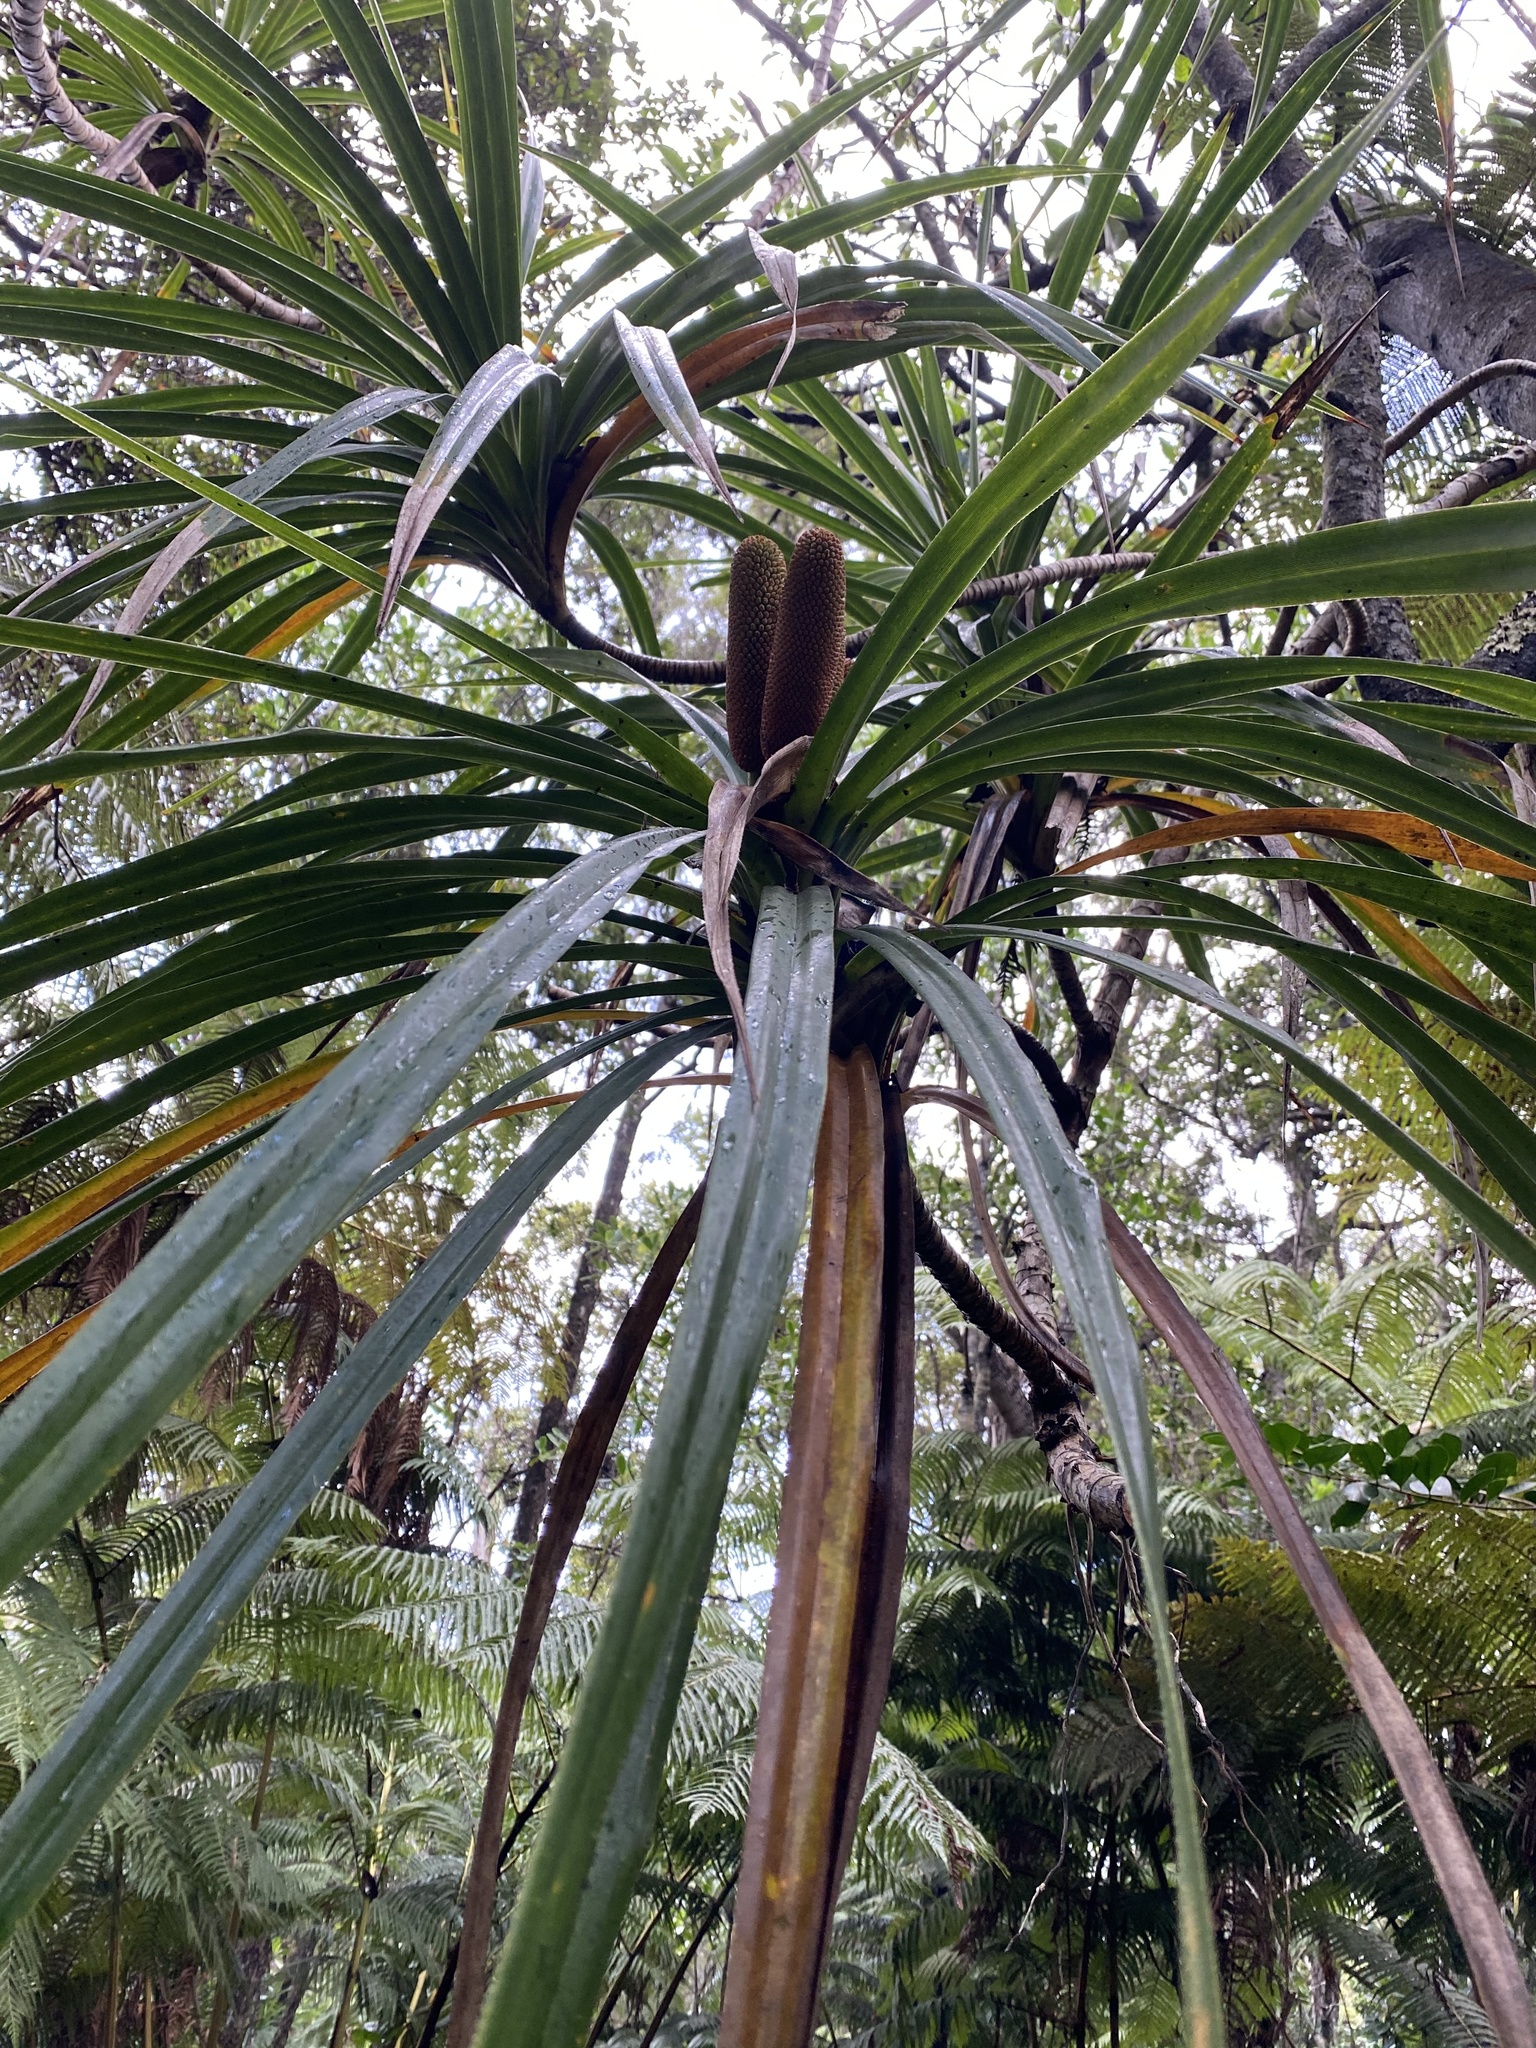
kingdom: Plantae
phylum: Tracheophyta
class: Liliopsida
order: Pandanales
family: Pandanaceae
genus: Freycinetia
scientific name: Freycinetia arborea
